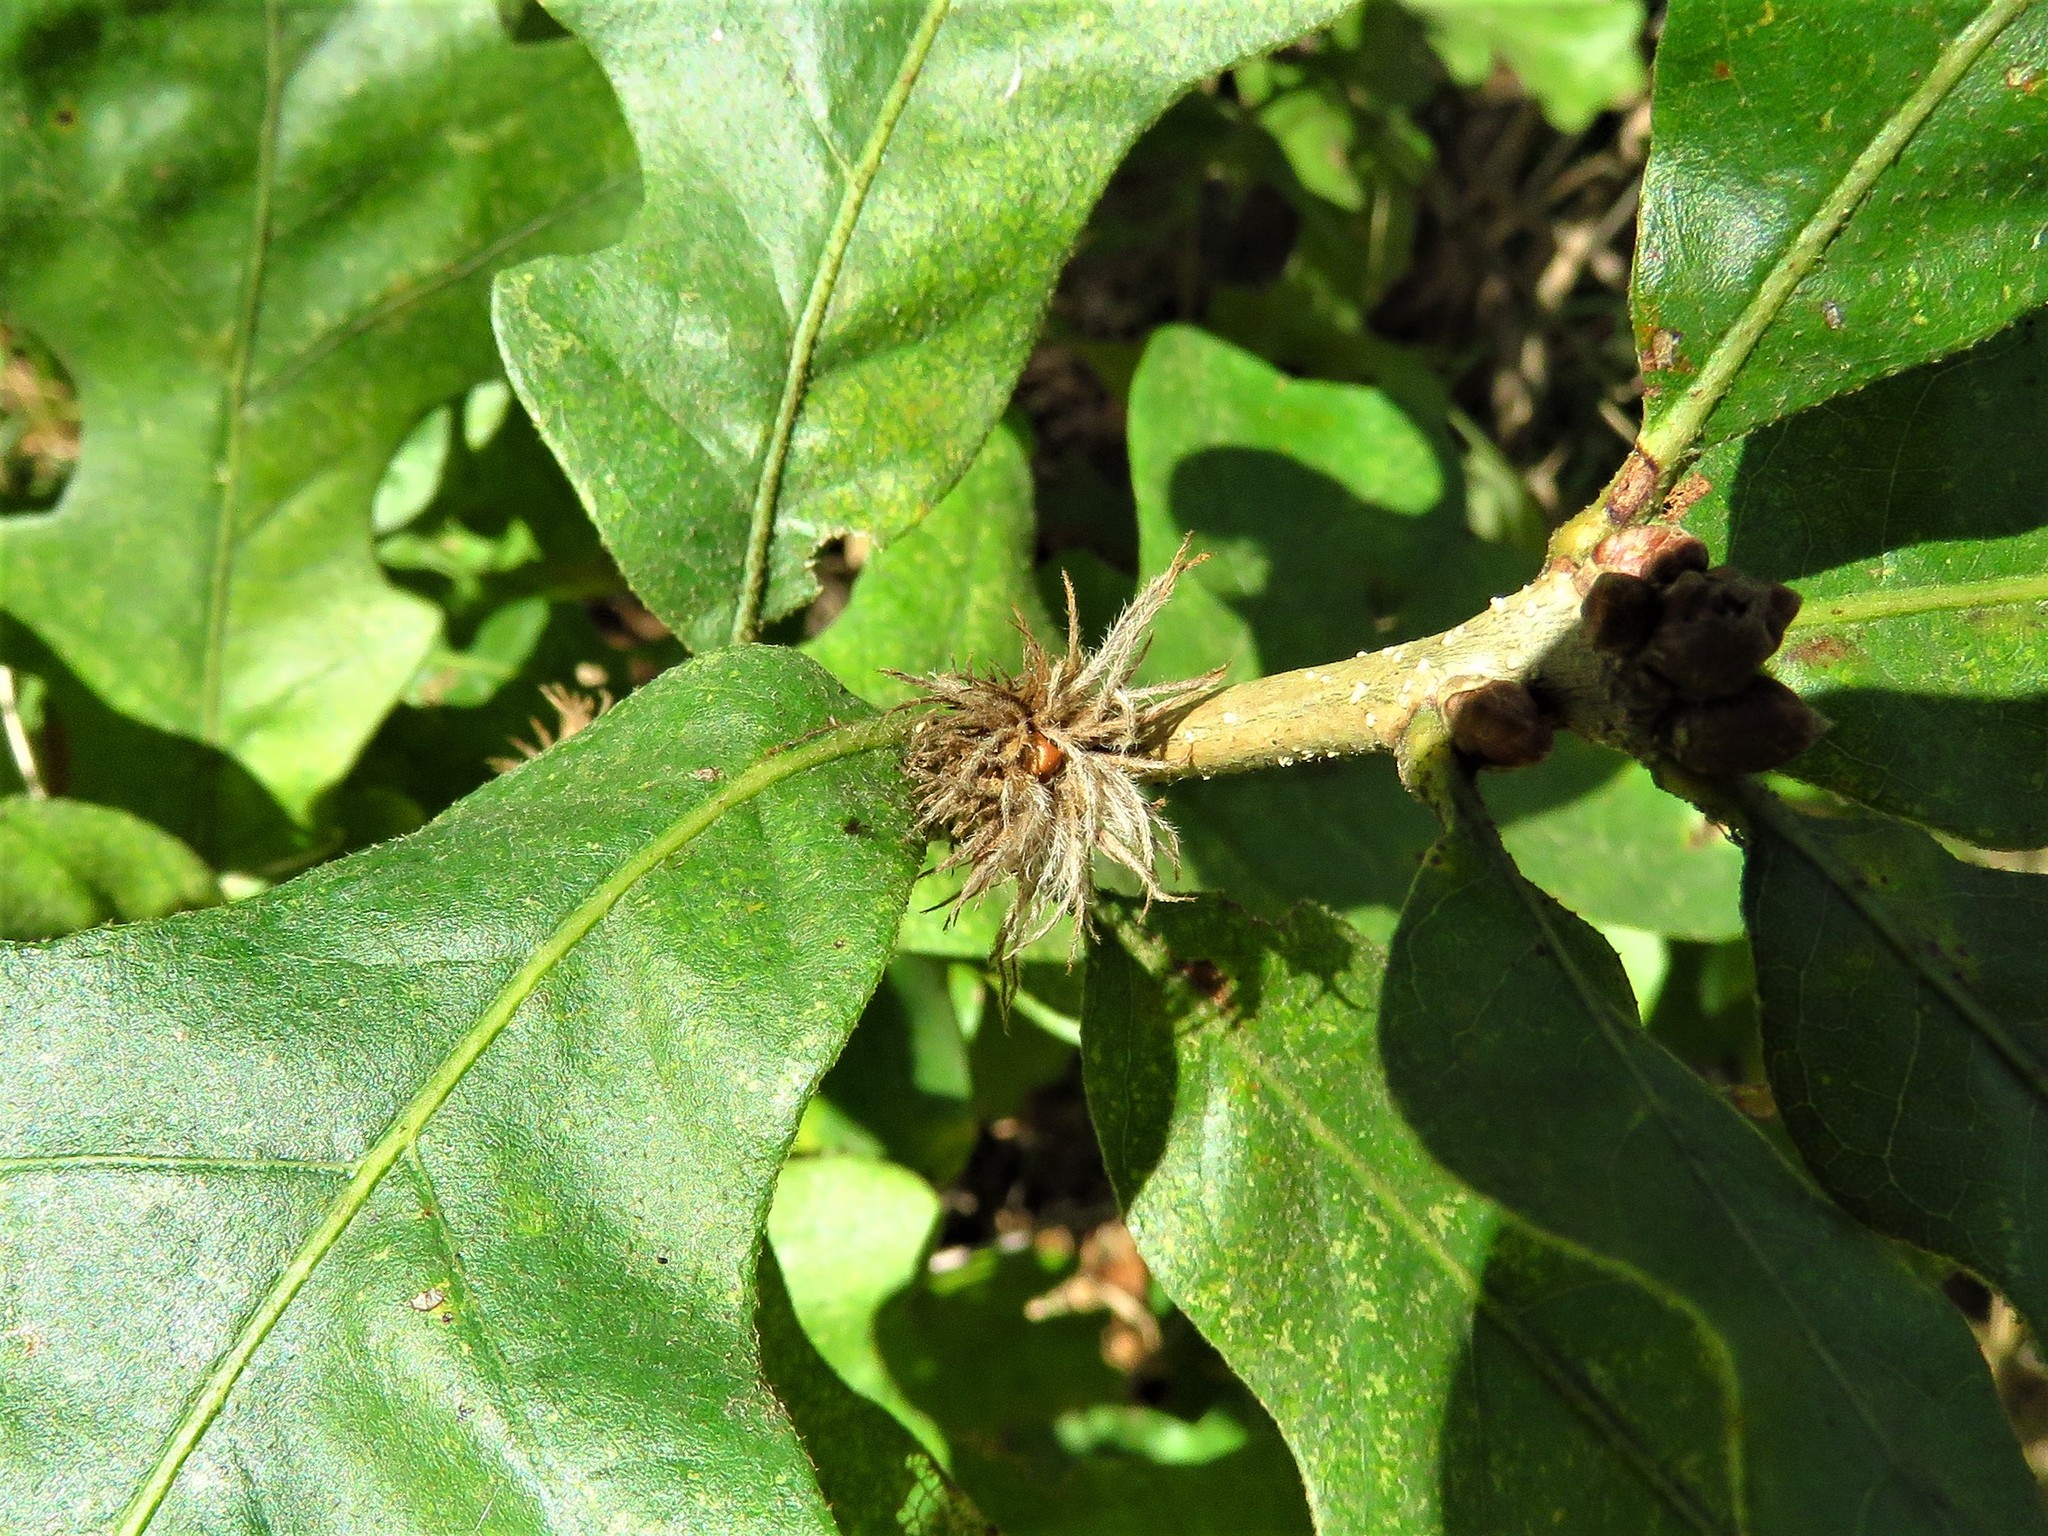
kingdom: Animalia
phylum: Arthropoda
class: Insecta
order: Hymenoptera
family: Cynipidae
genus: Andricus
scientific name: Andricus quercusfoliatus
